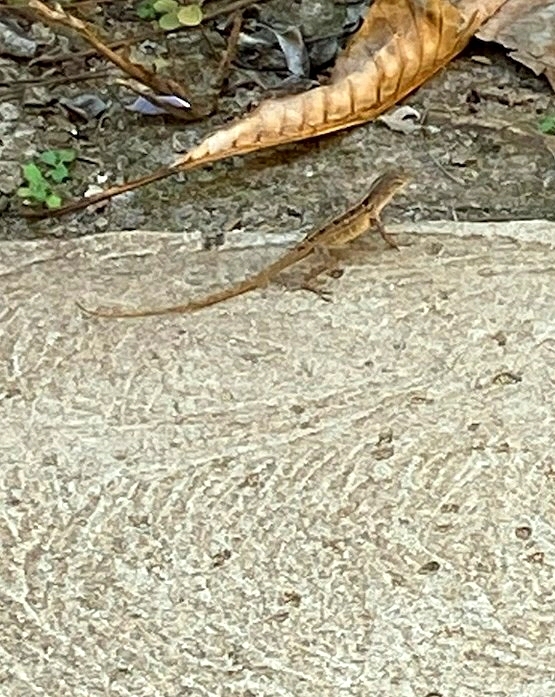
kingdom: Animalia
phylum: Chordata
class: Squamata
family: Dactyloidae
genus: Anolis
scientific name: Anolis sagrei
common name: Brown anole
